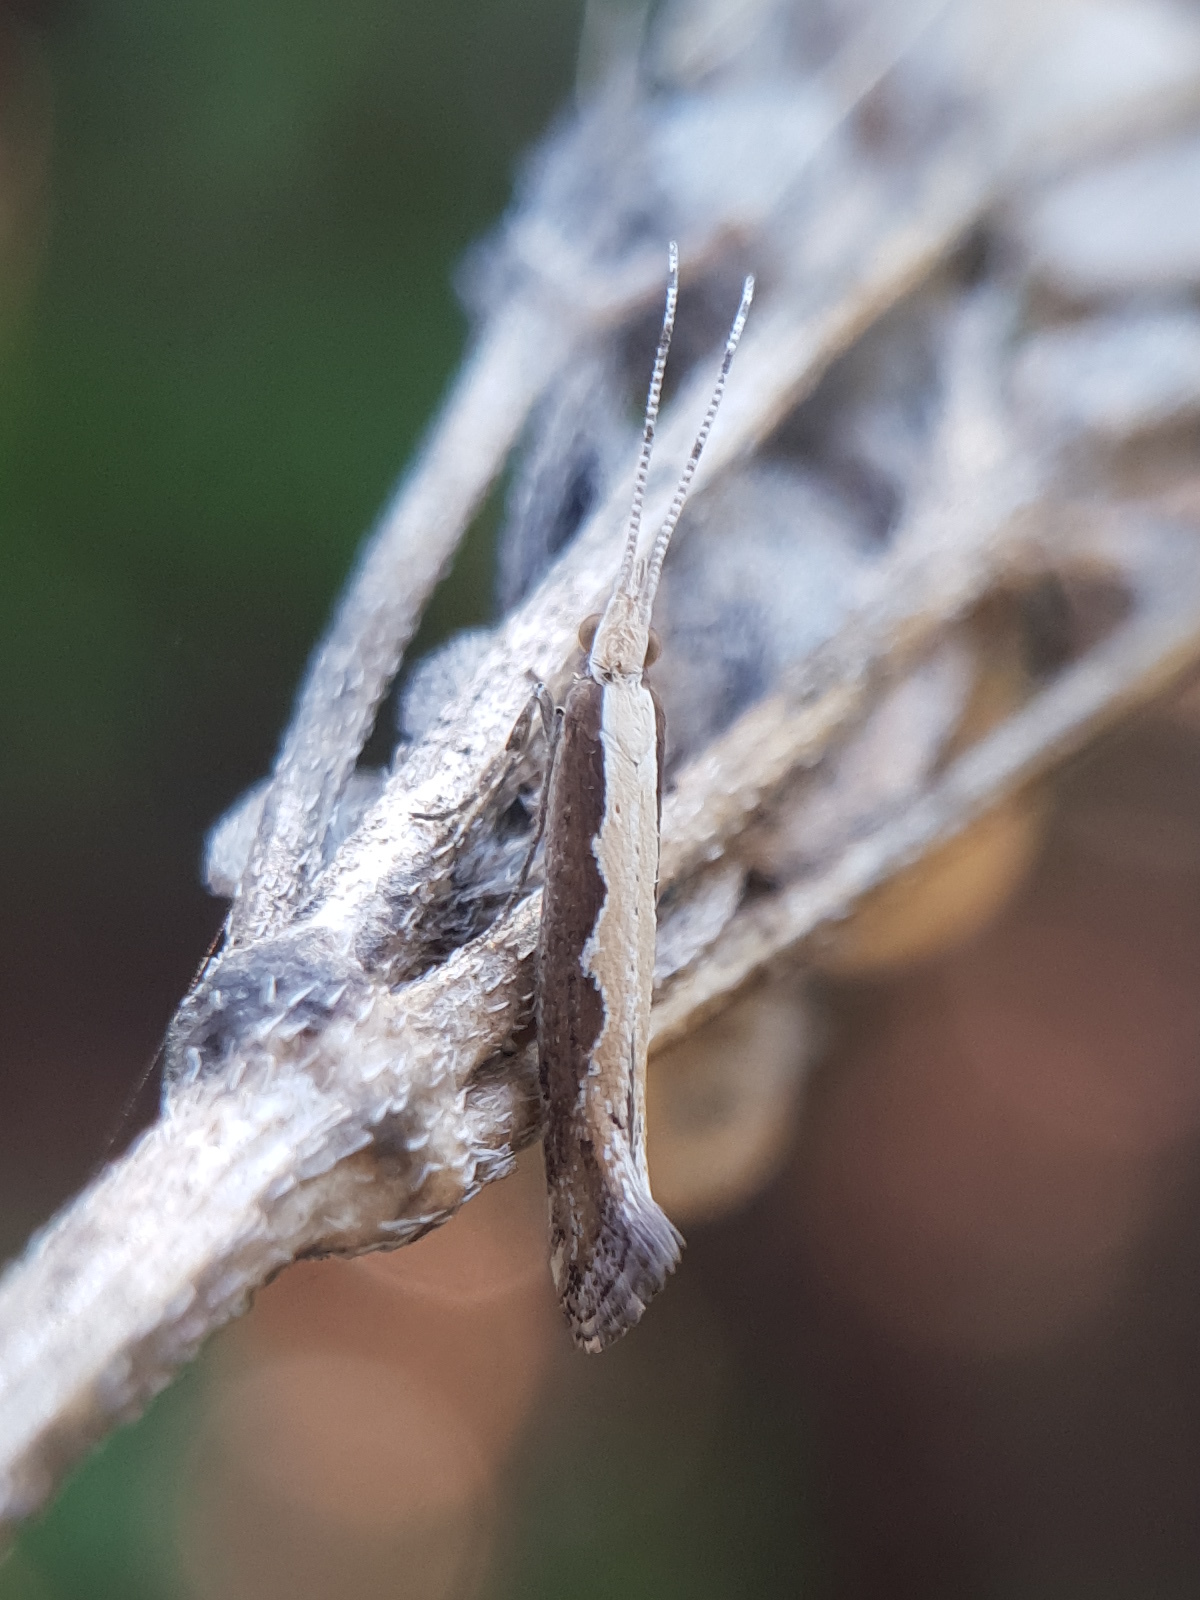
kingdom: Animalia
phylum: Arthropoda
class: Insecta
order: Lepidoptera
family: Plutellidae
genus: Plutella
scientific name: Plutella xylostella
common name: Diamond-back moth
